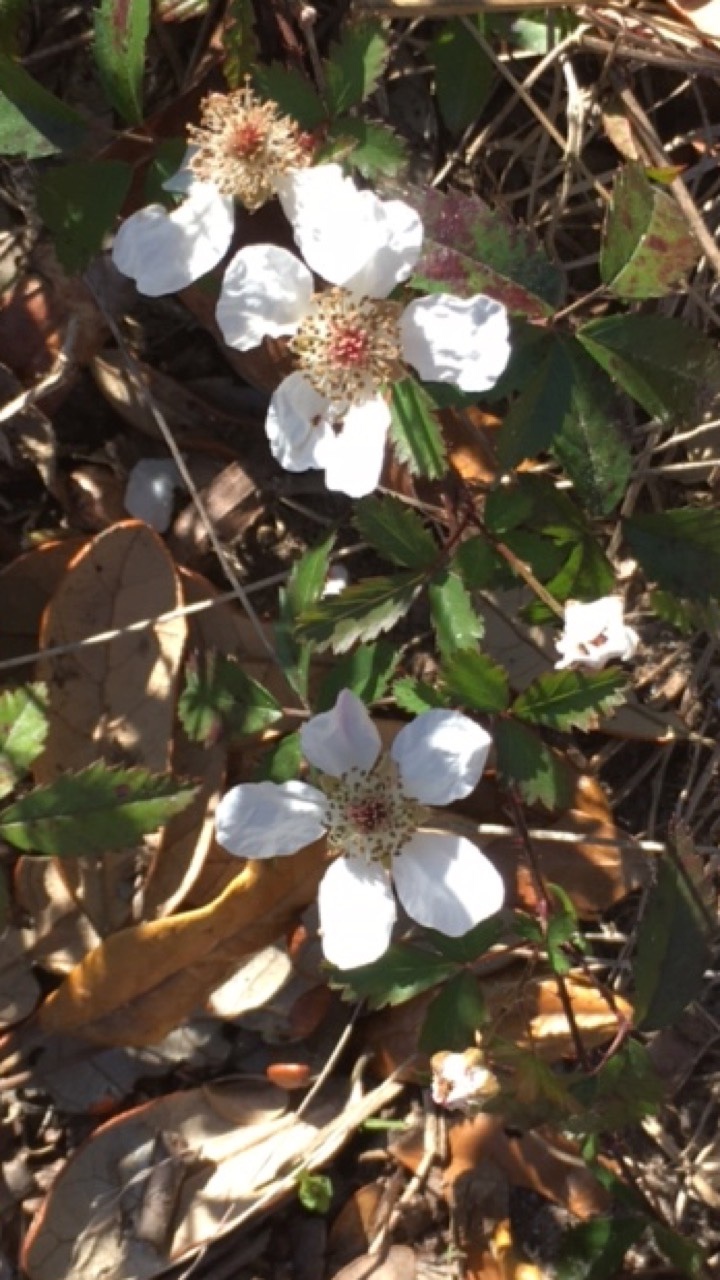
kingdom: Plantae
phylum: Tracheophyta
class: Magnoliopsida
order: Rosales
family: Rosaceae
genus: Rubus
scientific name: Rubus trivialis
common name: Southern dewberry
